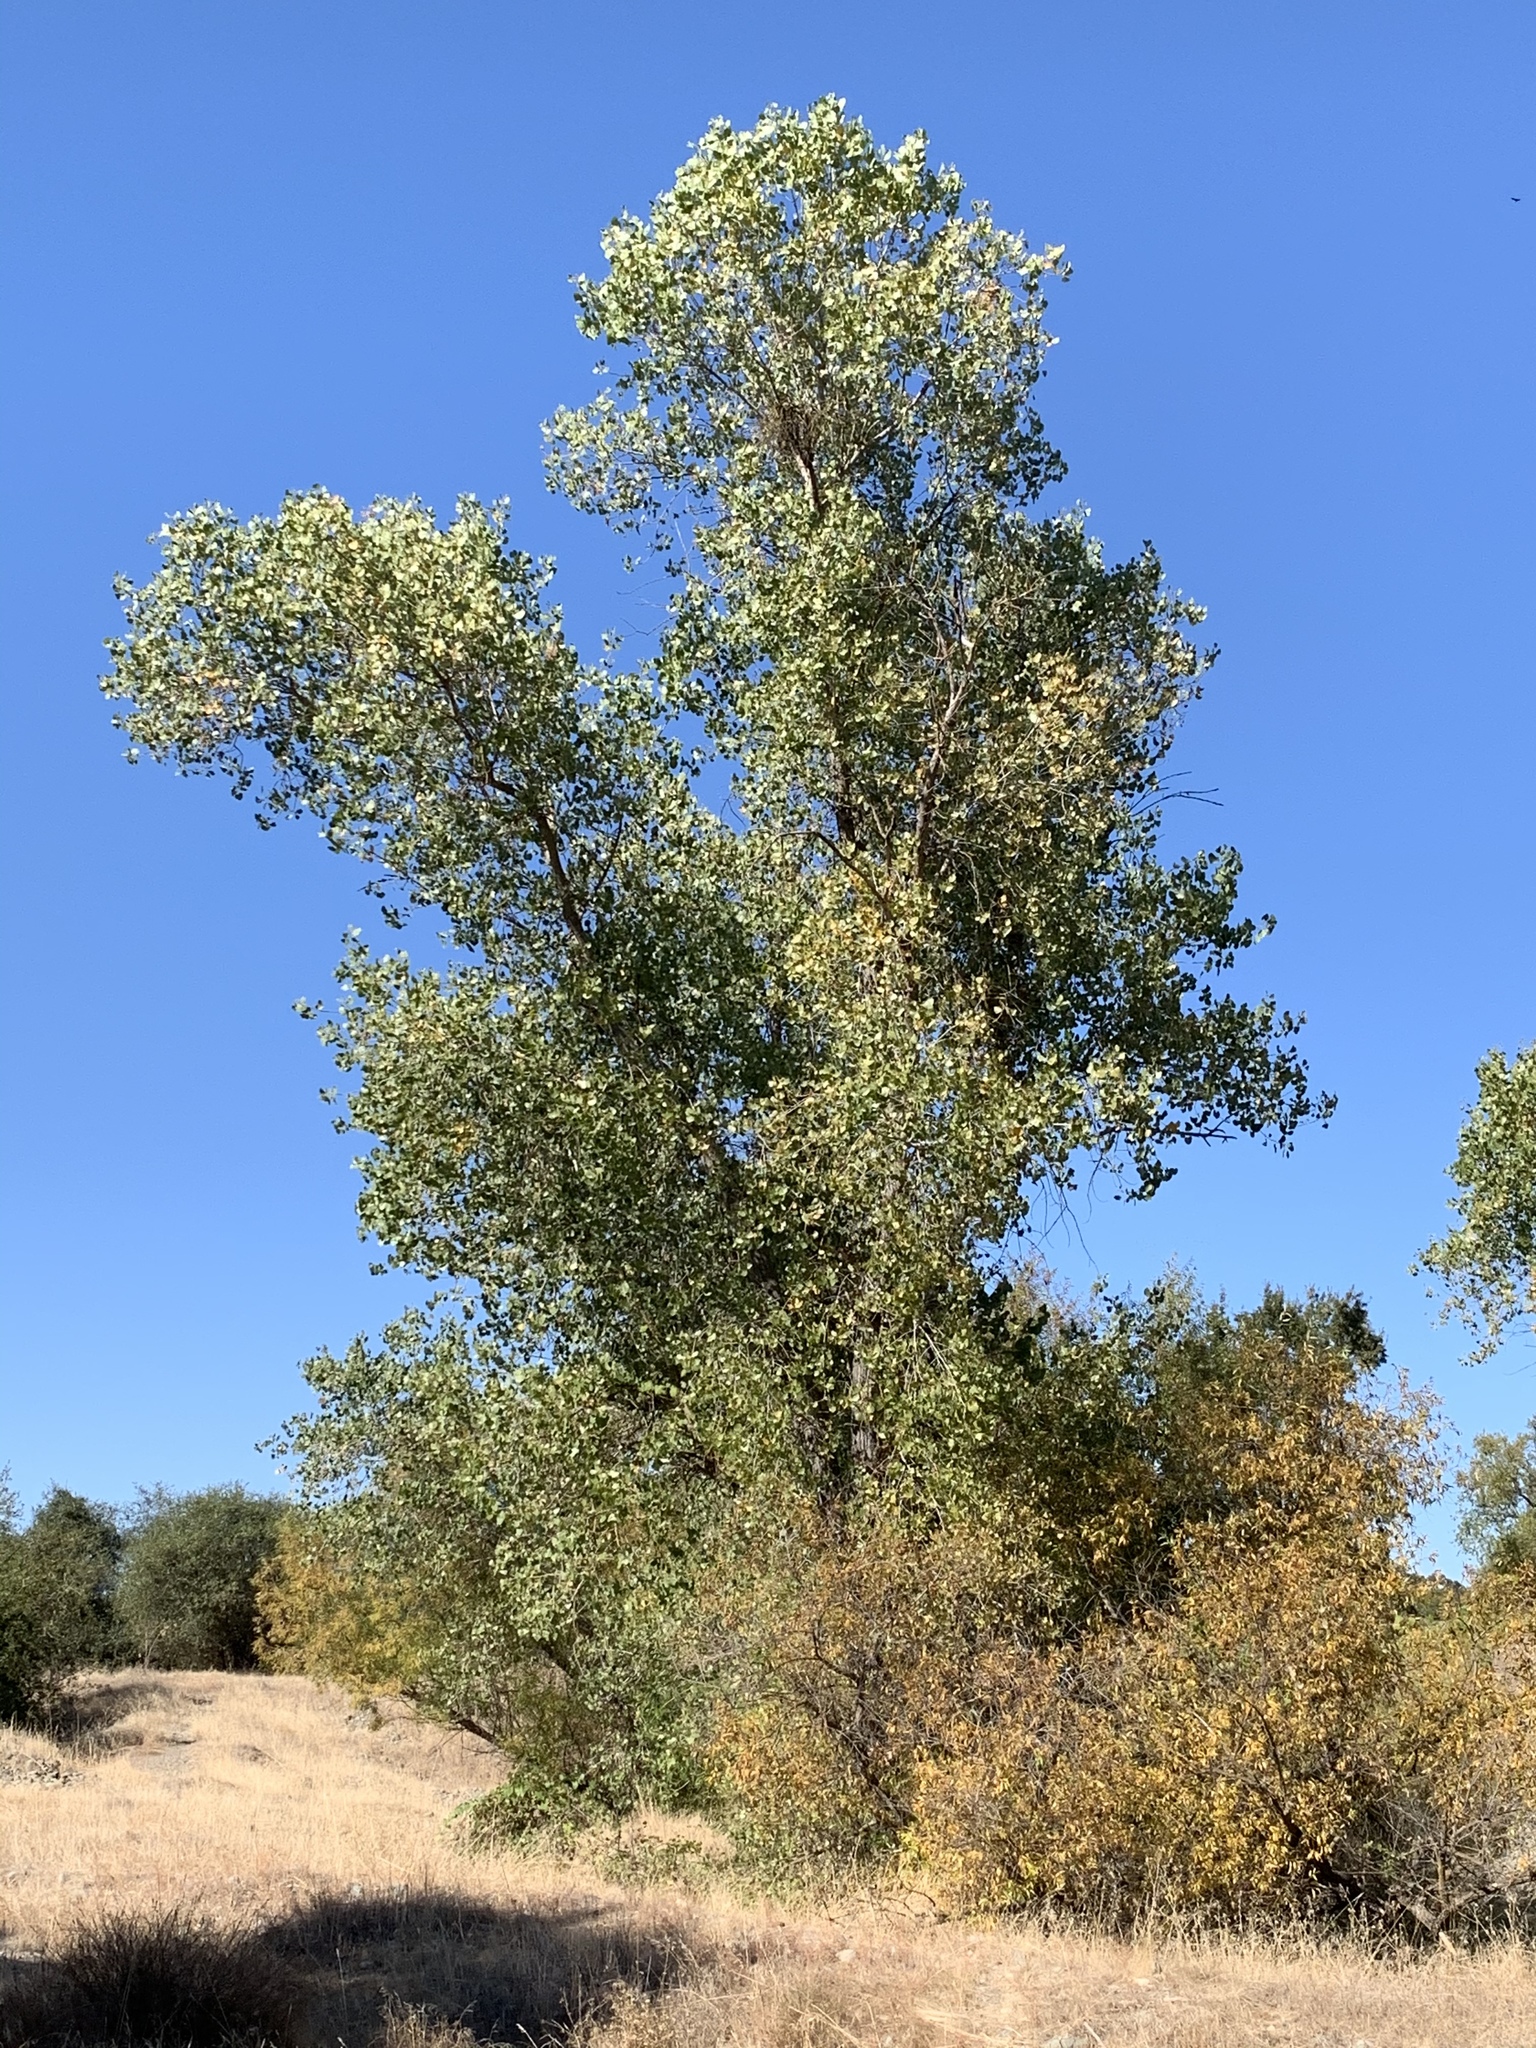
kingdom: Plantae
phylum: Tracheophyta
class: Magnoliopsida
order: Malpighiales
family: Salicaceae
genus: Populus
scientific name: Populus fremontii
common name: Fremont's cottonwood
